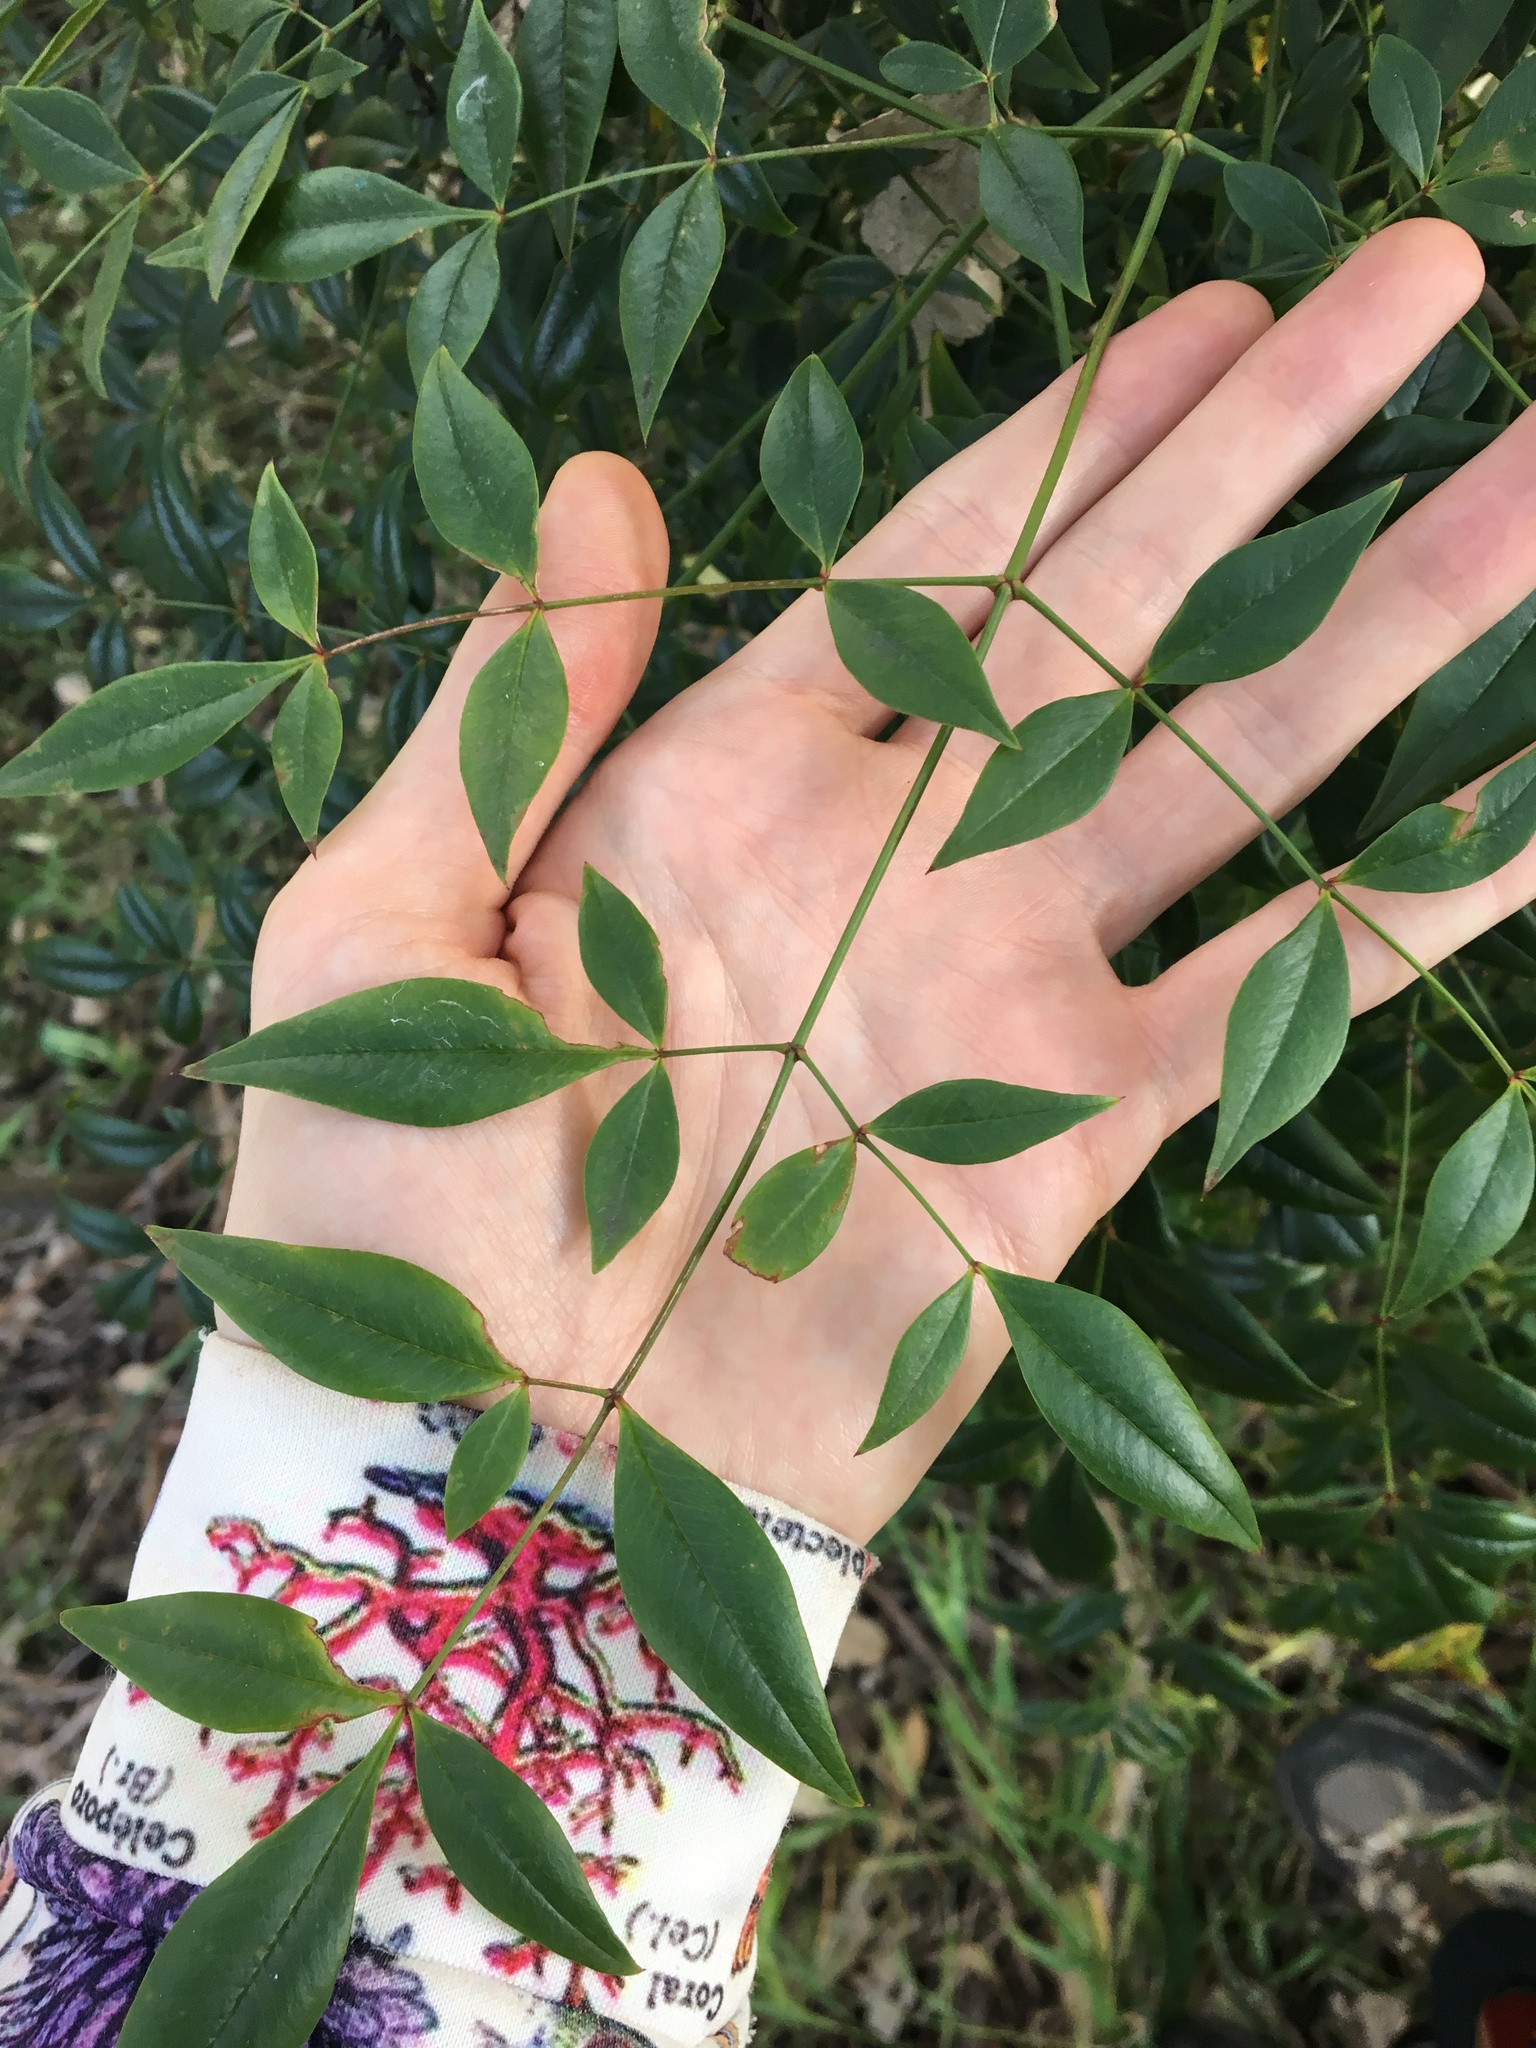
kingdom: Plantae
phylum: Tracheophyta
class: Magnoliopsida
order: Ranunculales
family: Berberidaceae
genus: Nandina
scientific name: Nandina domestica
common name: Sacred bamboo
